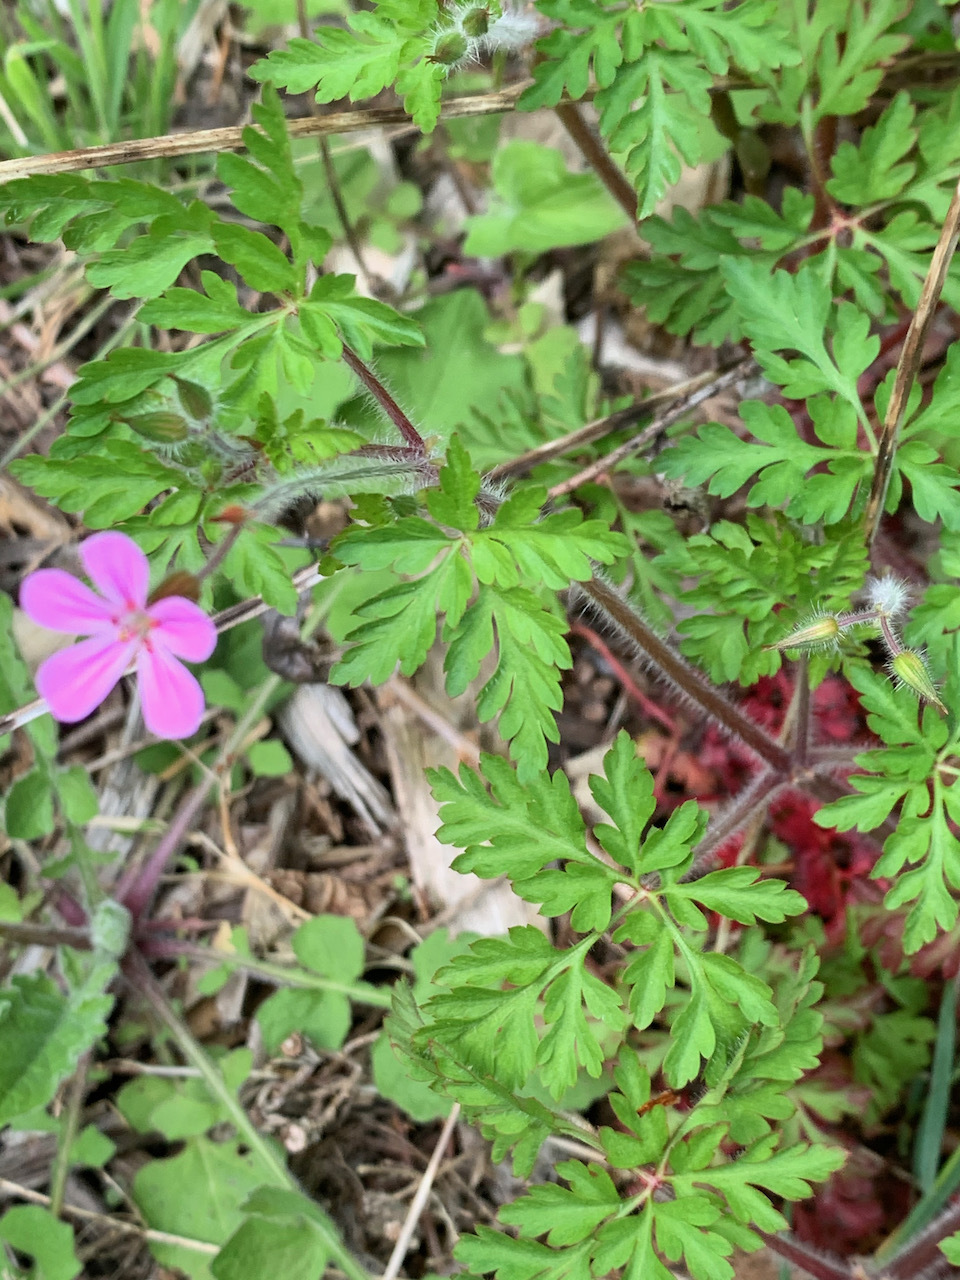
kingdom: Plantae
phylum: Tracheophyta
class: Magnoliopsida
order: Geraniales
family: Geraniaceae
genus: Geranium
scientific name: Geranium robertianum
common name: Herb-robert
